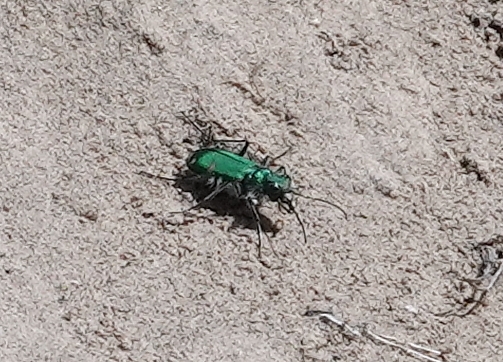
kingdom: Animalia
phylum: Arthropoda
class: Insecta
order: Coleoptera
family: Carabidae
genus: Cicindela
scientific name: Cicindela denverensis
